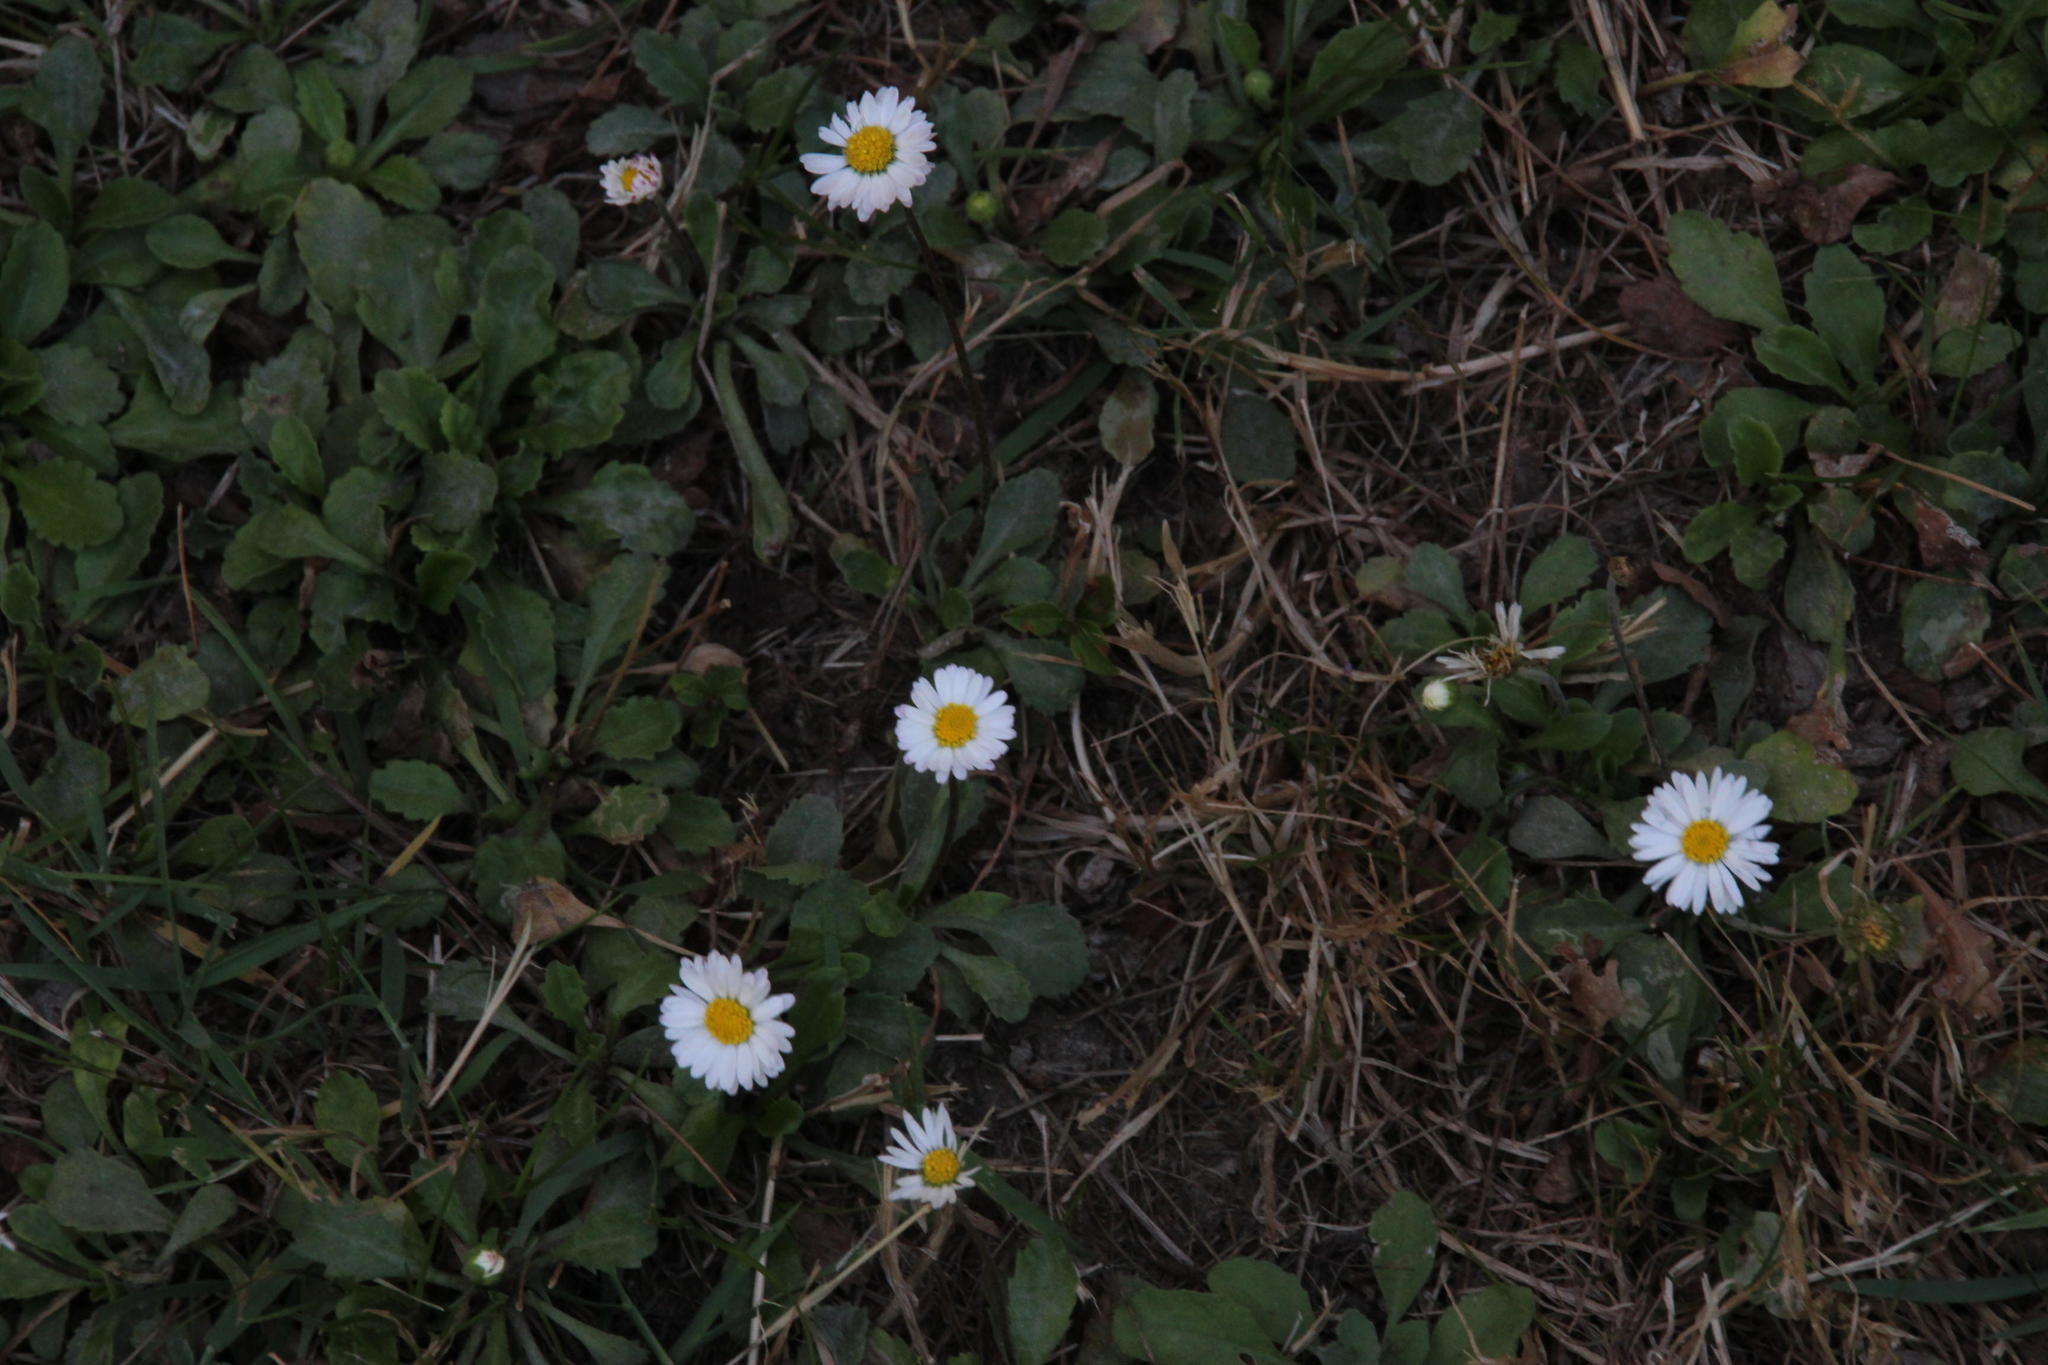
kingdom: Plantae
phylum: Tracheophyta
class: Magnoliopsida
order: Asterales
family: Asteraceae
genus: Bellis
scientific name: Bellis perennis
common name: Lawndaisy
